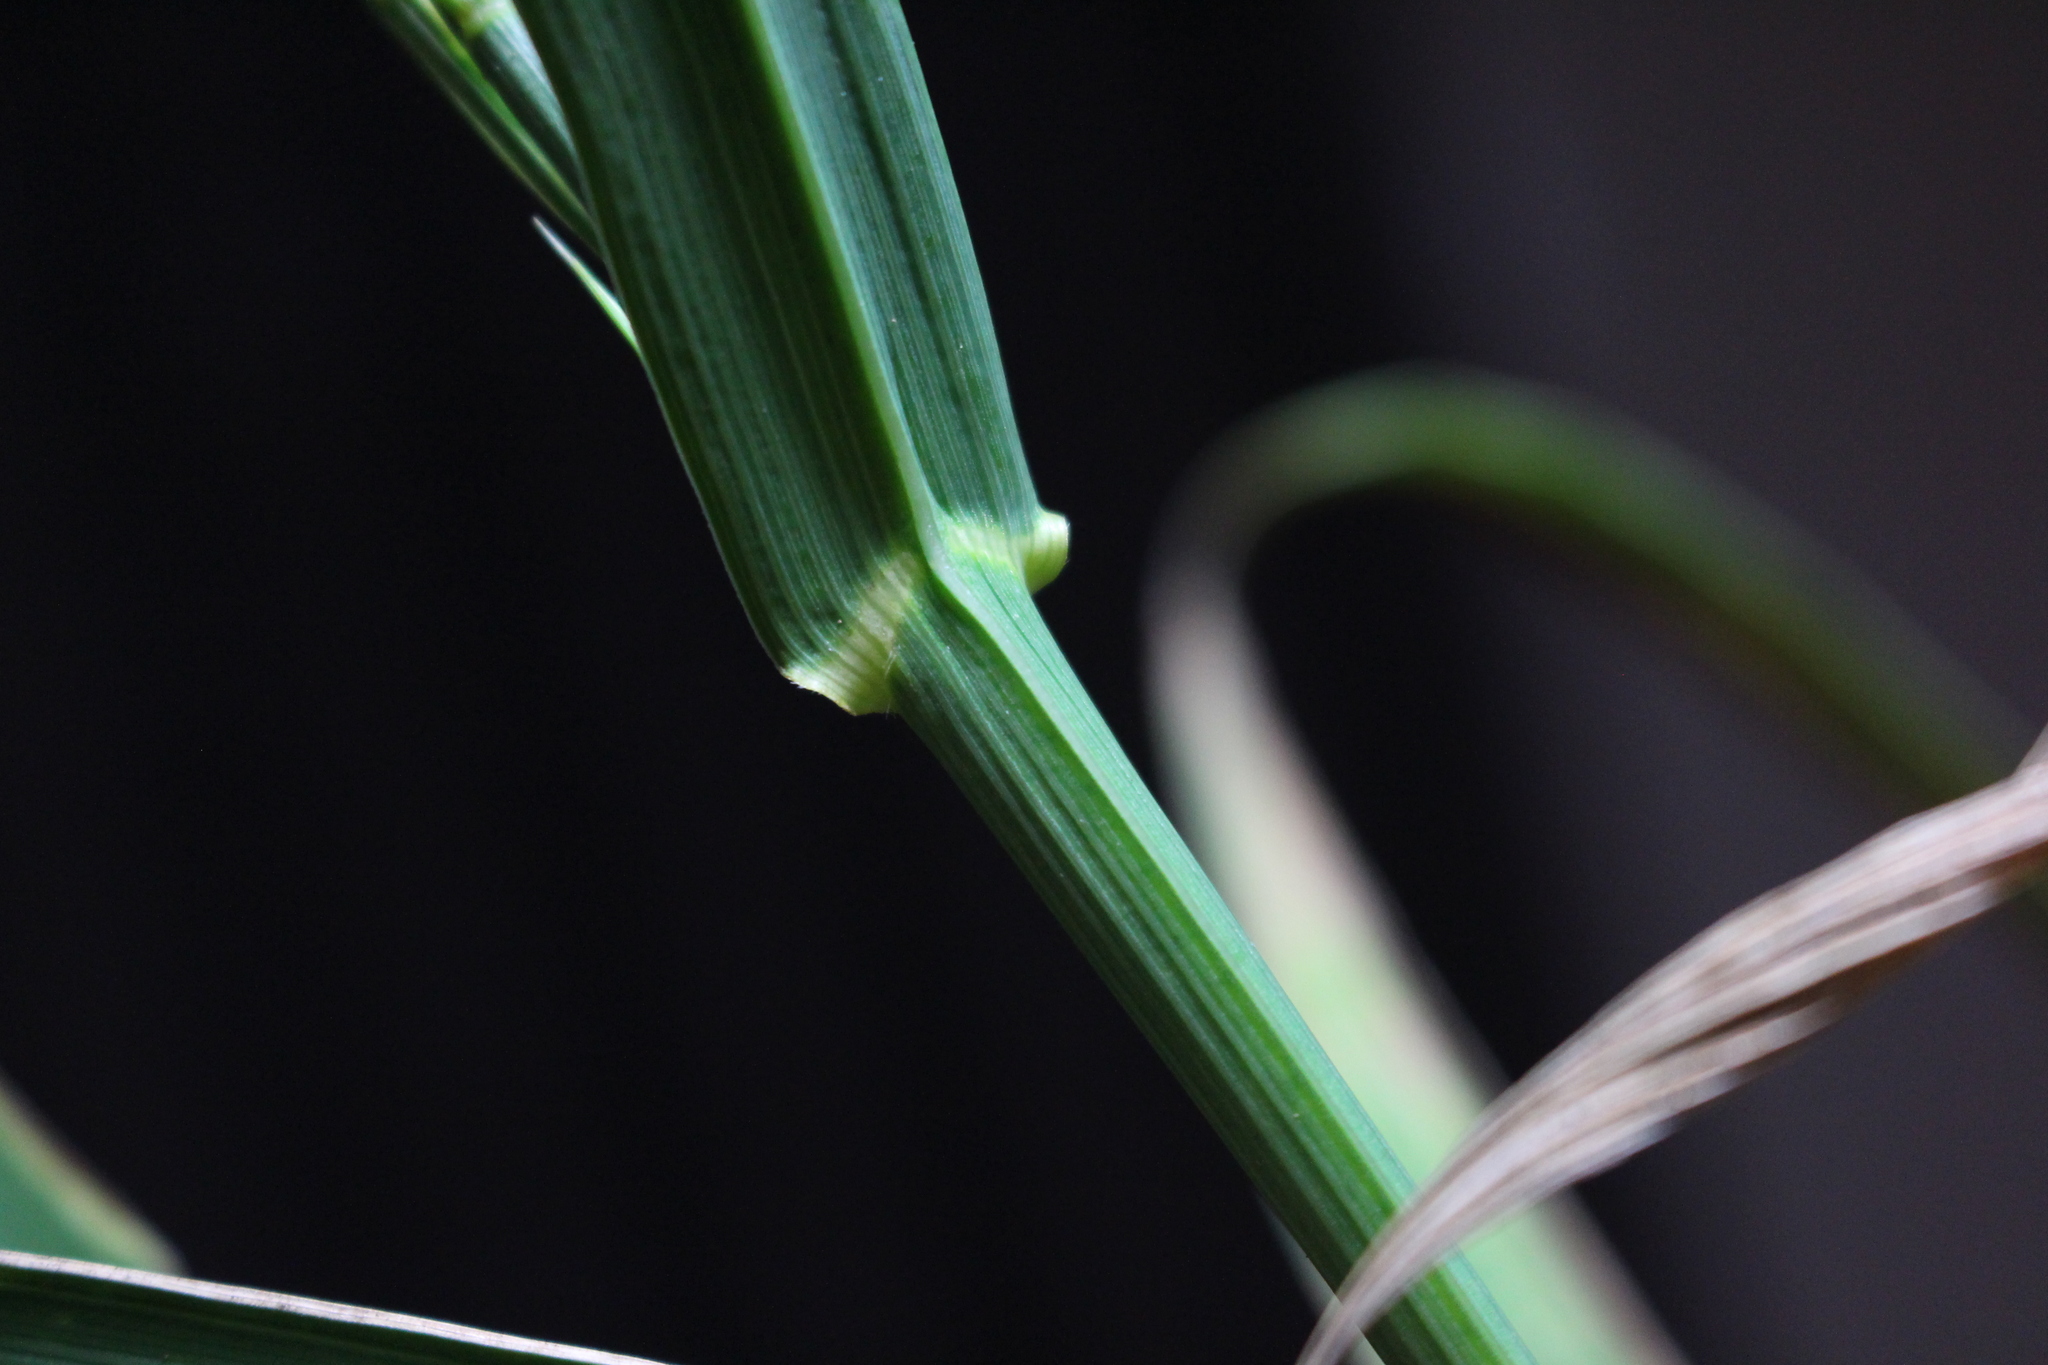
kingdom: Plantae
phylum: Tracheophyta
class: Liliopsida
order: Poales
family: Poaceae
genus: Bromus
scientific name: Bromus cebadilla
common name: Southern brome
